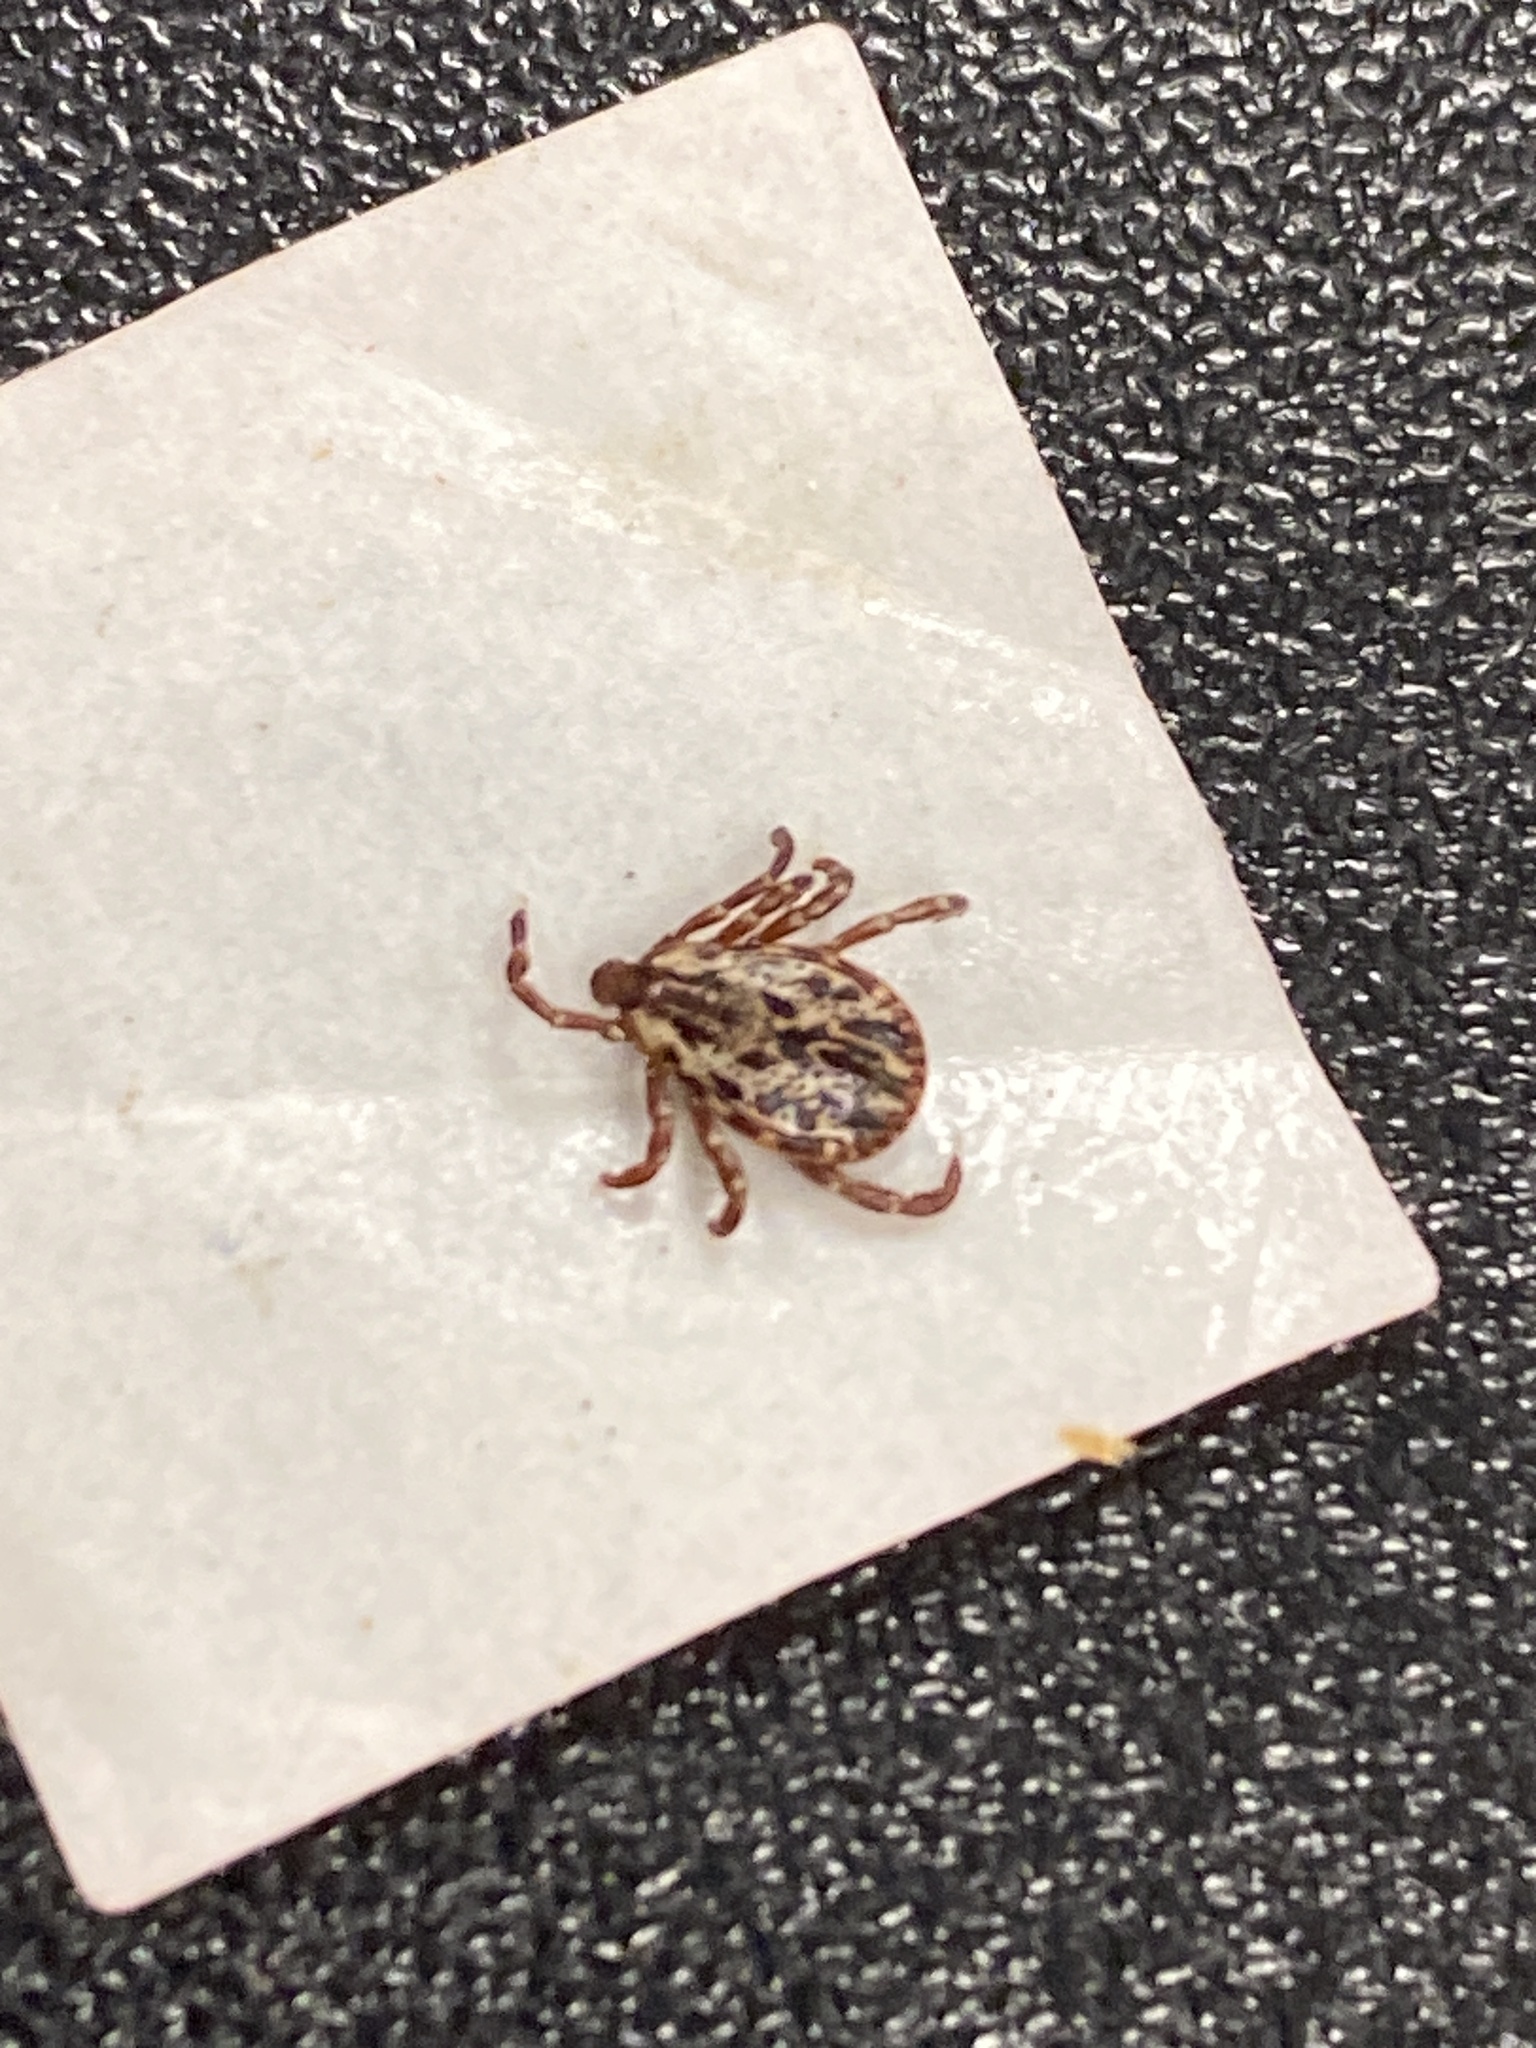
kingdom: Animalia
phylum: Arthropoda
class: Arachnida
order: Ixodida
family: Ixodidae
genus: Dermacentor
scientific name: Dermacentor variabilis
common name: American dog tick
